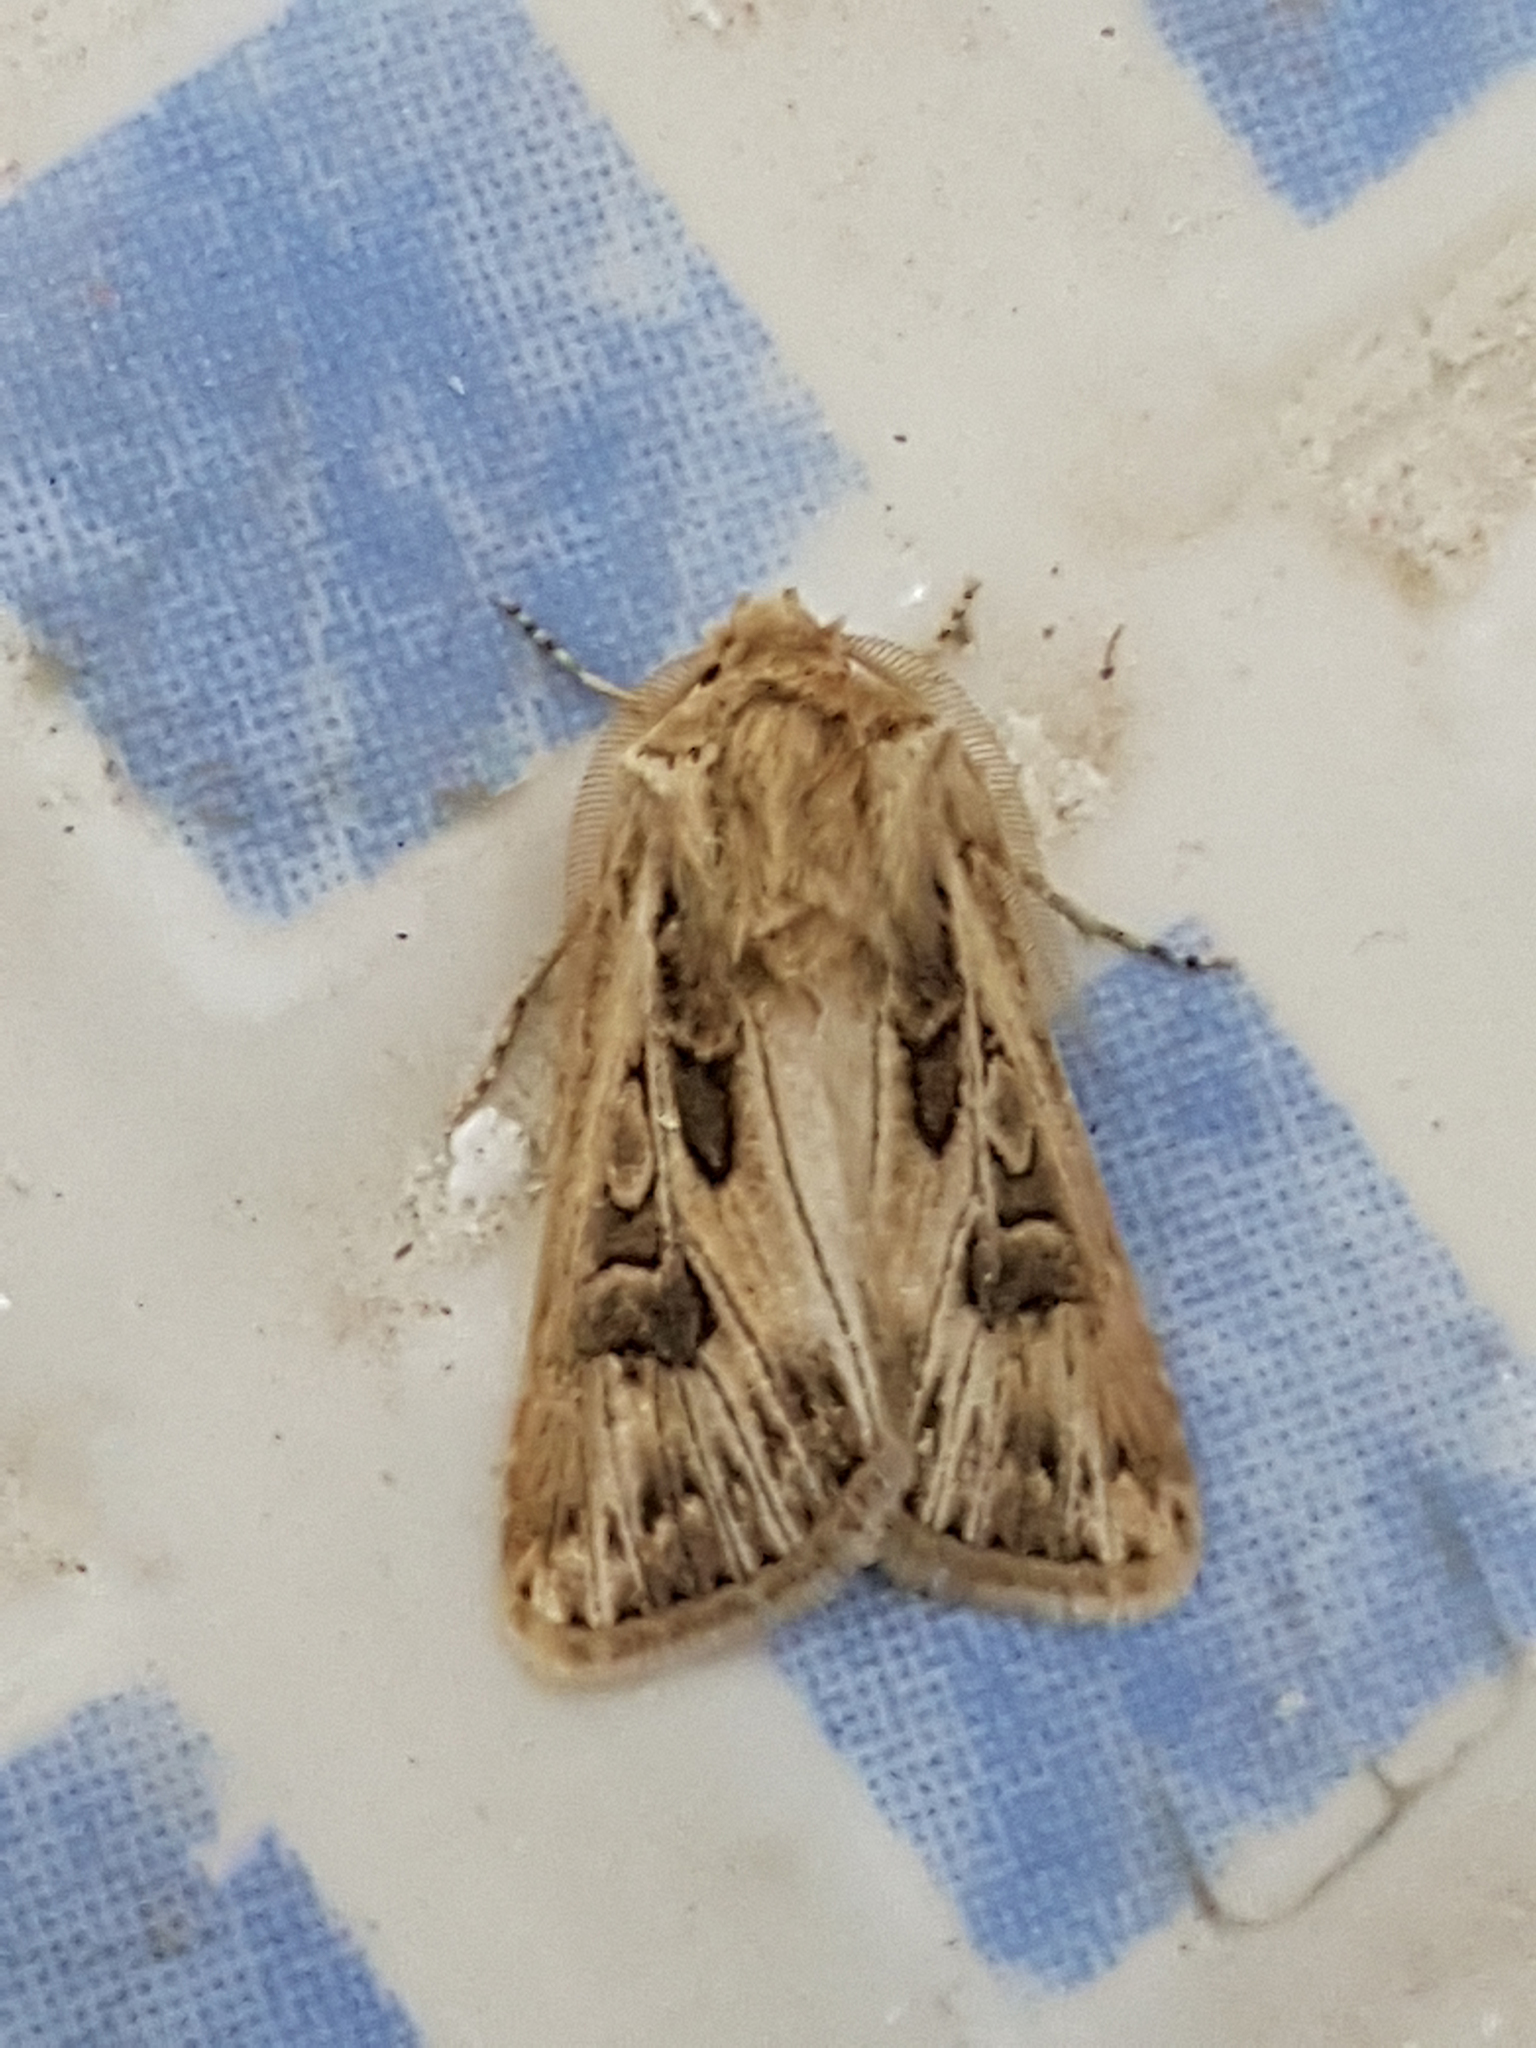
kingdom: Animalia
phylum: Arthropoda
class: Insecta
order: Lepidoptera
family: Noctuidae
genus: Agrotis
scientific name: Agrotis obesa
